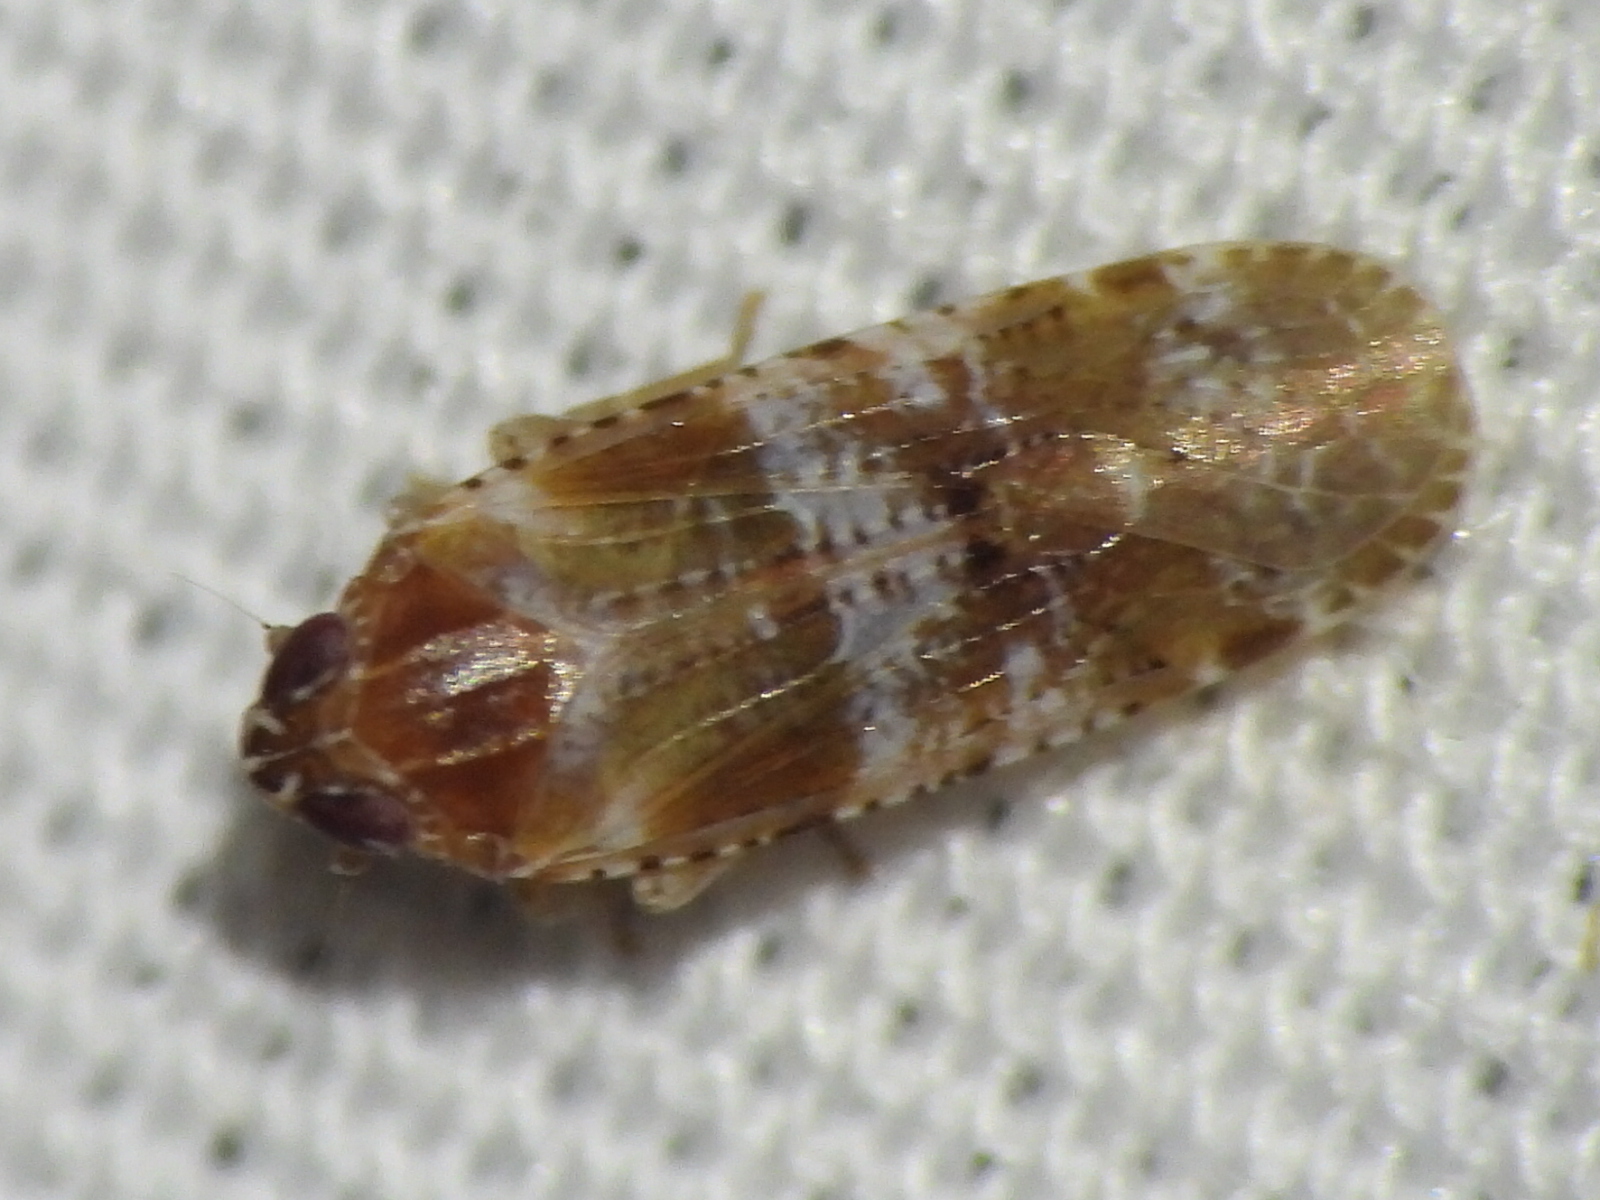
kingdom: Animalia
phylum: Arthropoda
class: Insecta
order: Hemiptera
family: Achilidae
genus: Catonia
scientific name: Catonia picta
